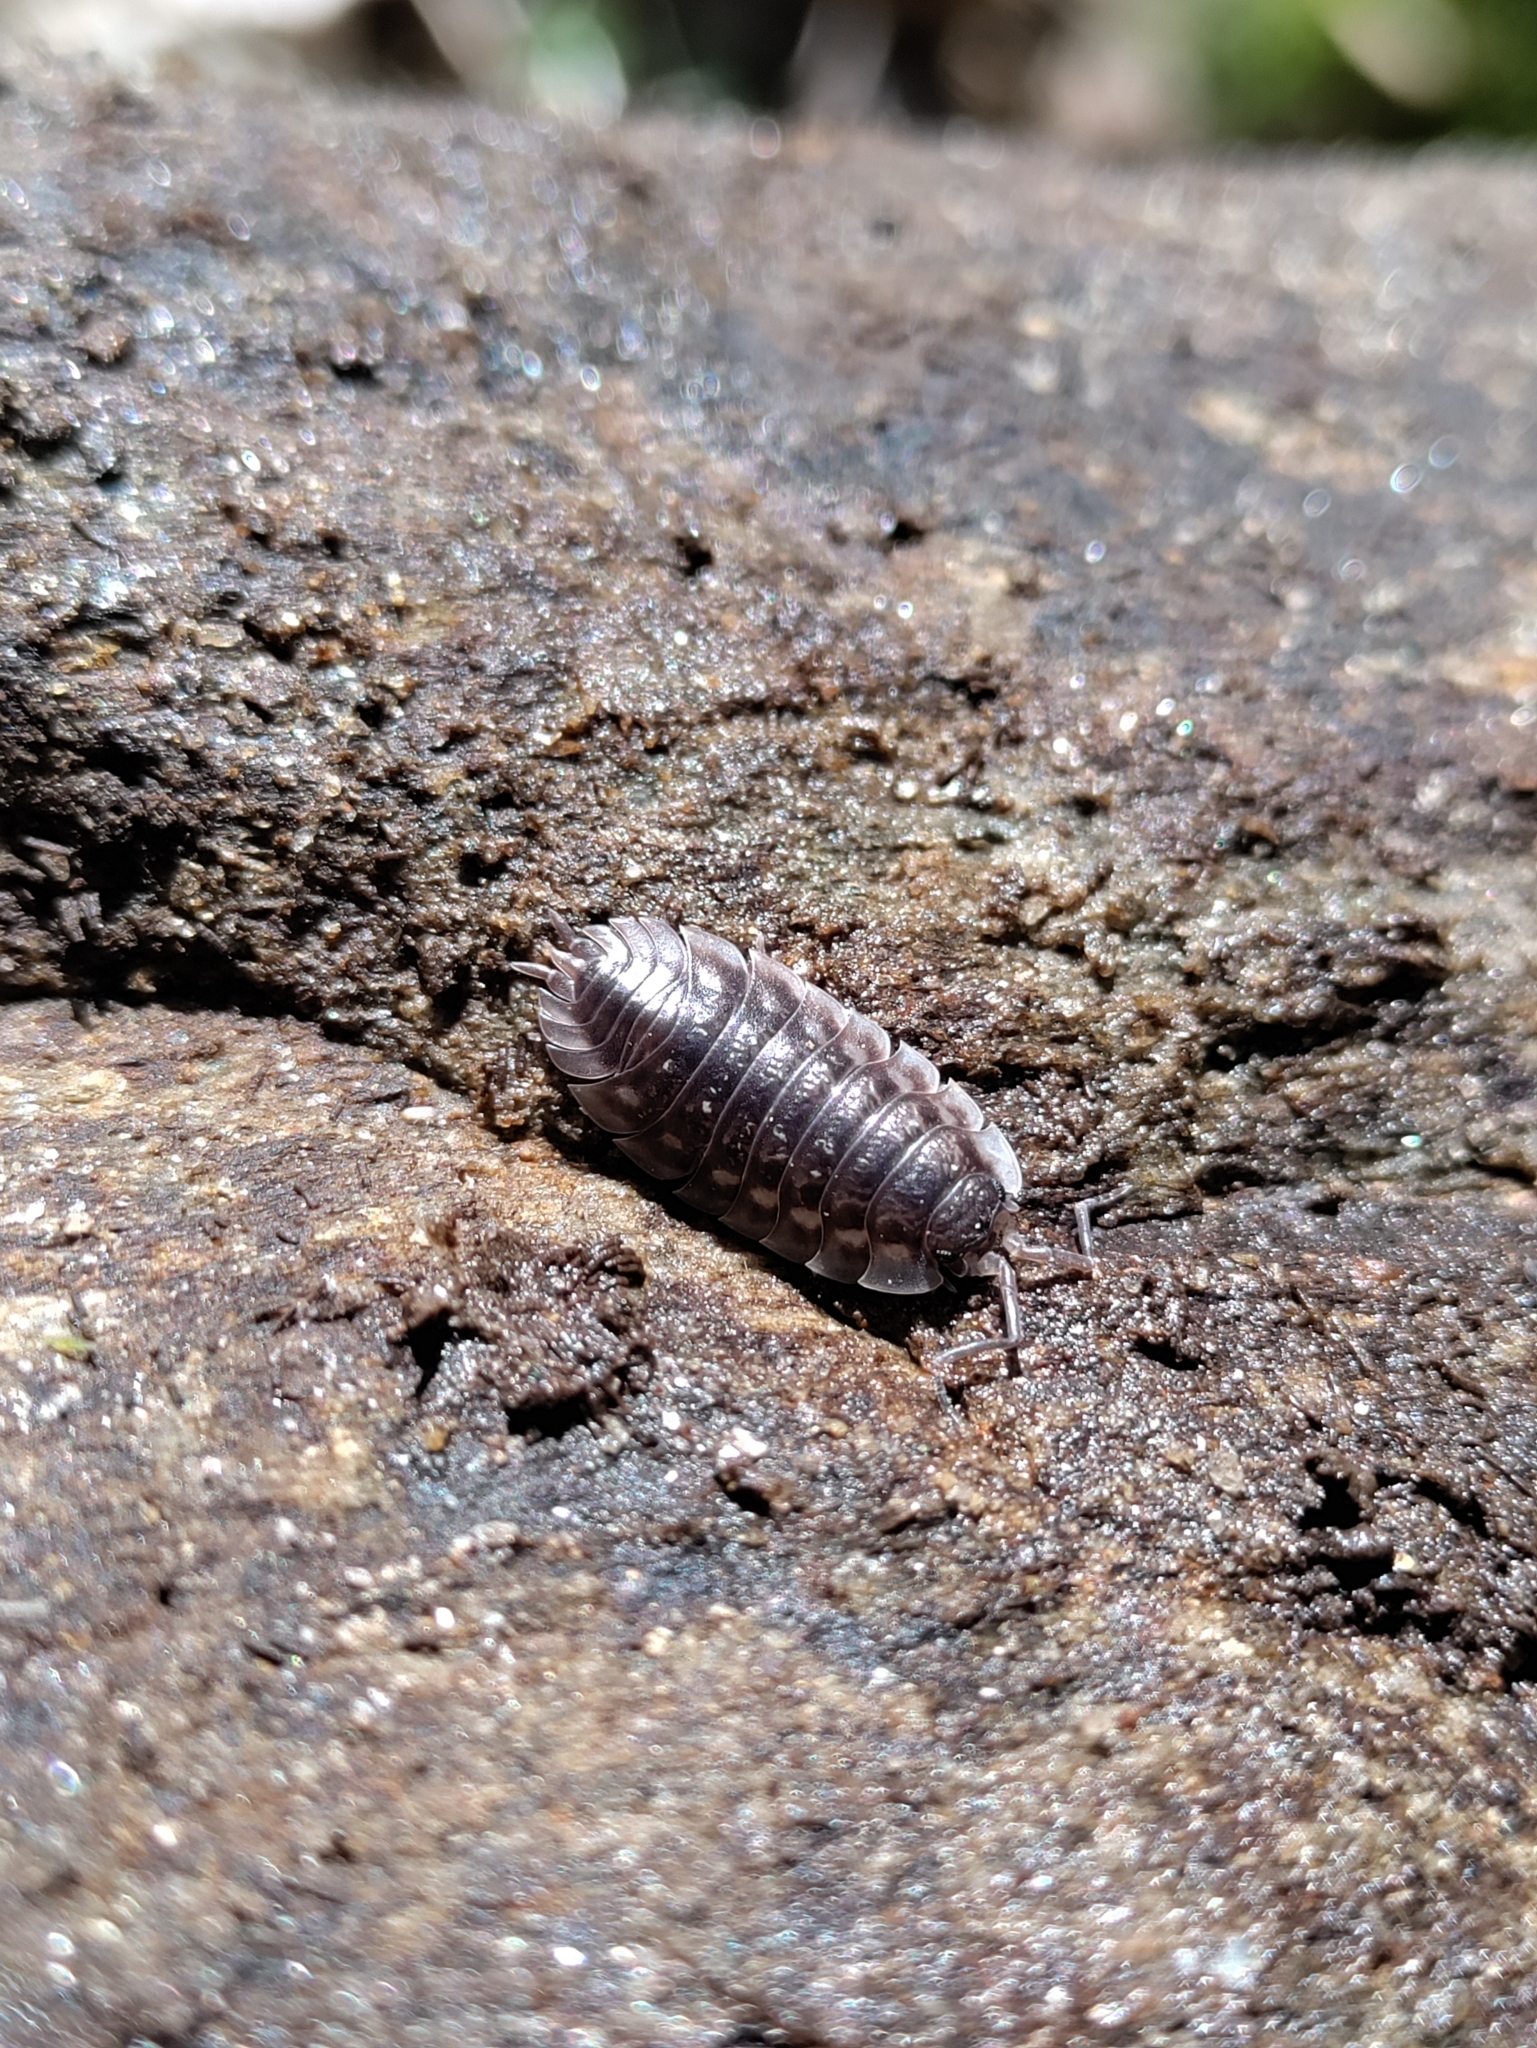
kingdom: Animalia
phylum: Arthropoda
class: Malacostraca
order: Isopoda
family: Oniscidae
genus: Oniscus
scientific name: Oniscus asellus
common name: Common shiny woodlouse
